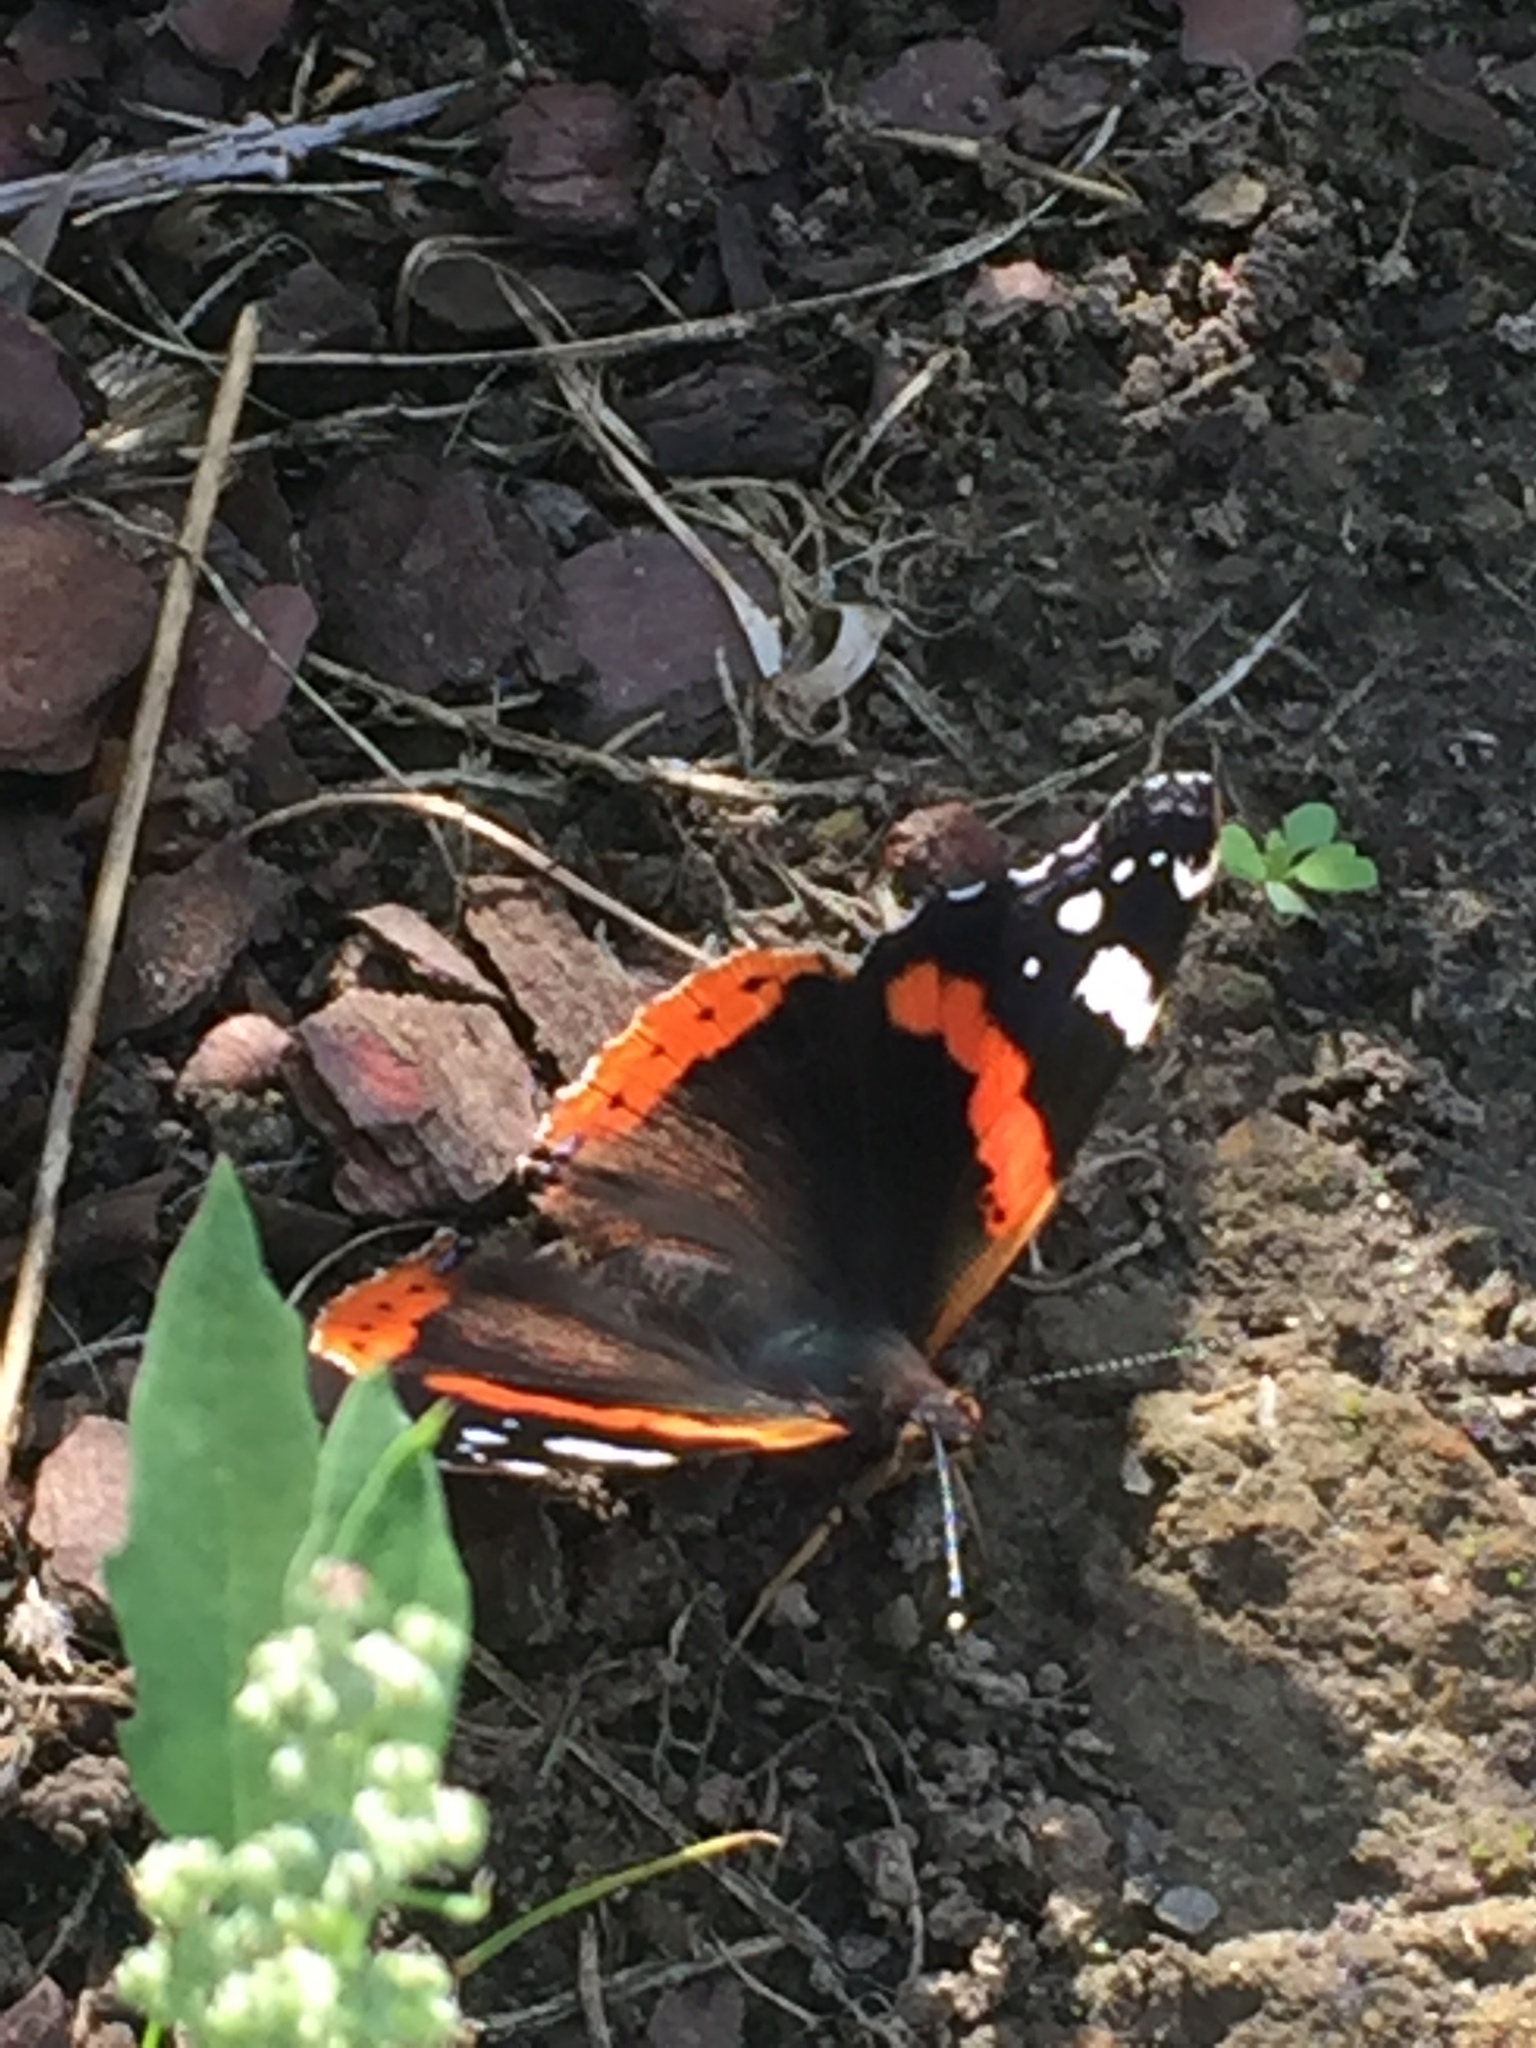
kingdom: Animalia
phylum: Arthropoda
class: Insecta
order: Lepidoptera
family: Nymphalidae
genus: Vanessa
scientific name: Vanessa atalanta
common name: Red admiral
